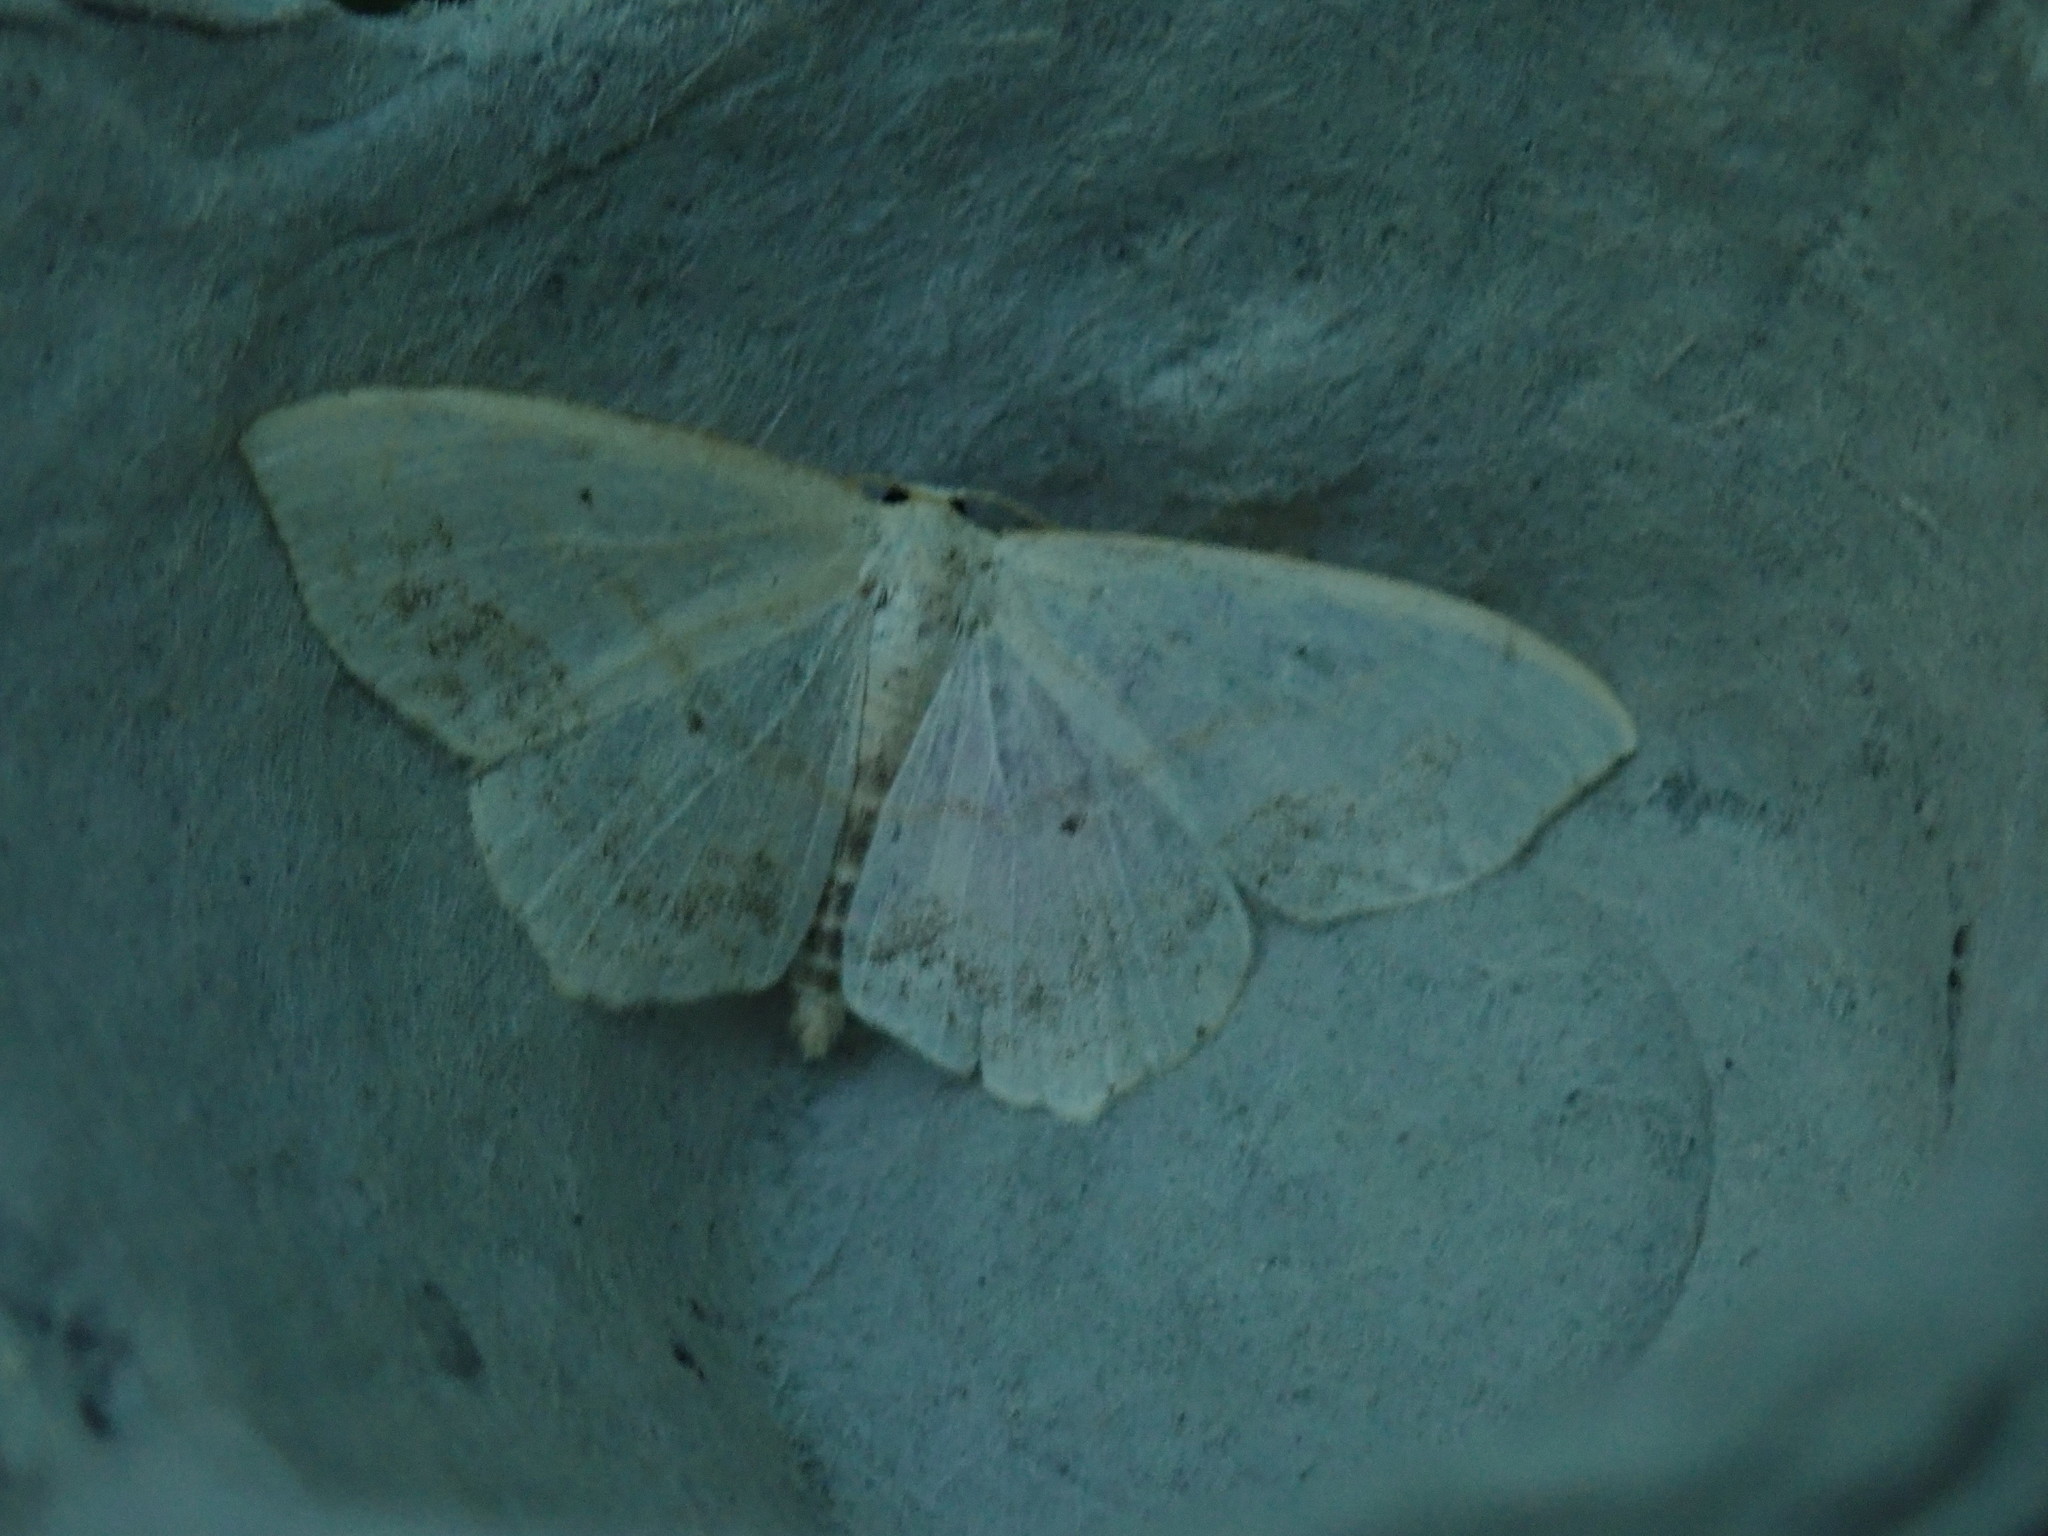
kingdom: Animalia
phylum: Arthropoda
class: Insecta
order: Lepidoptera
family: Geometridae
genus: Scopula
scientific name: Scopula limboundata
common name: Large lace border
